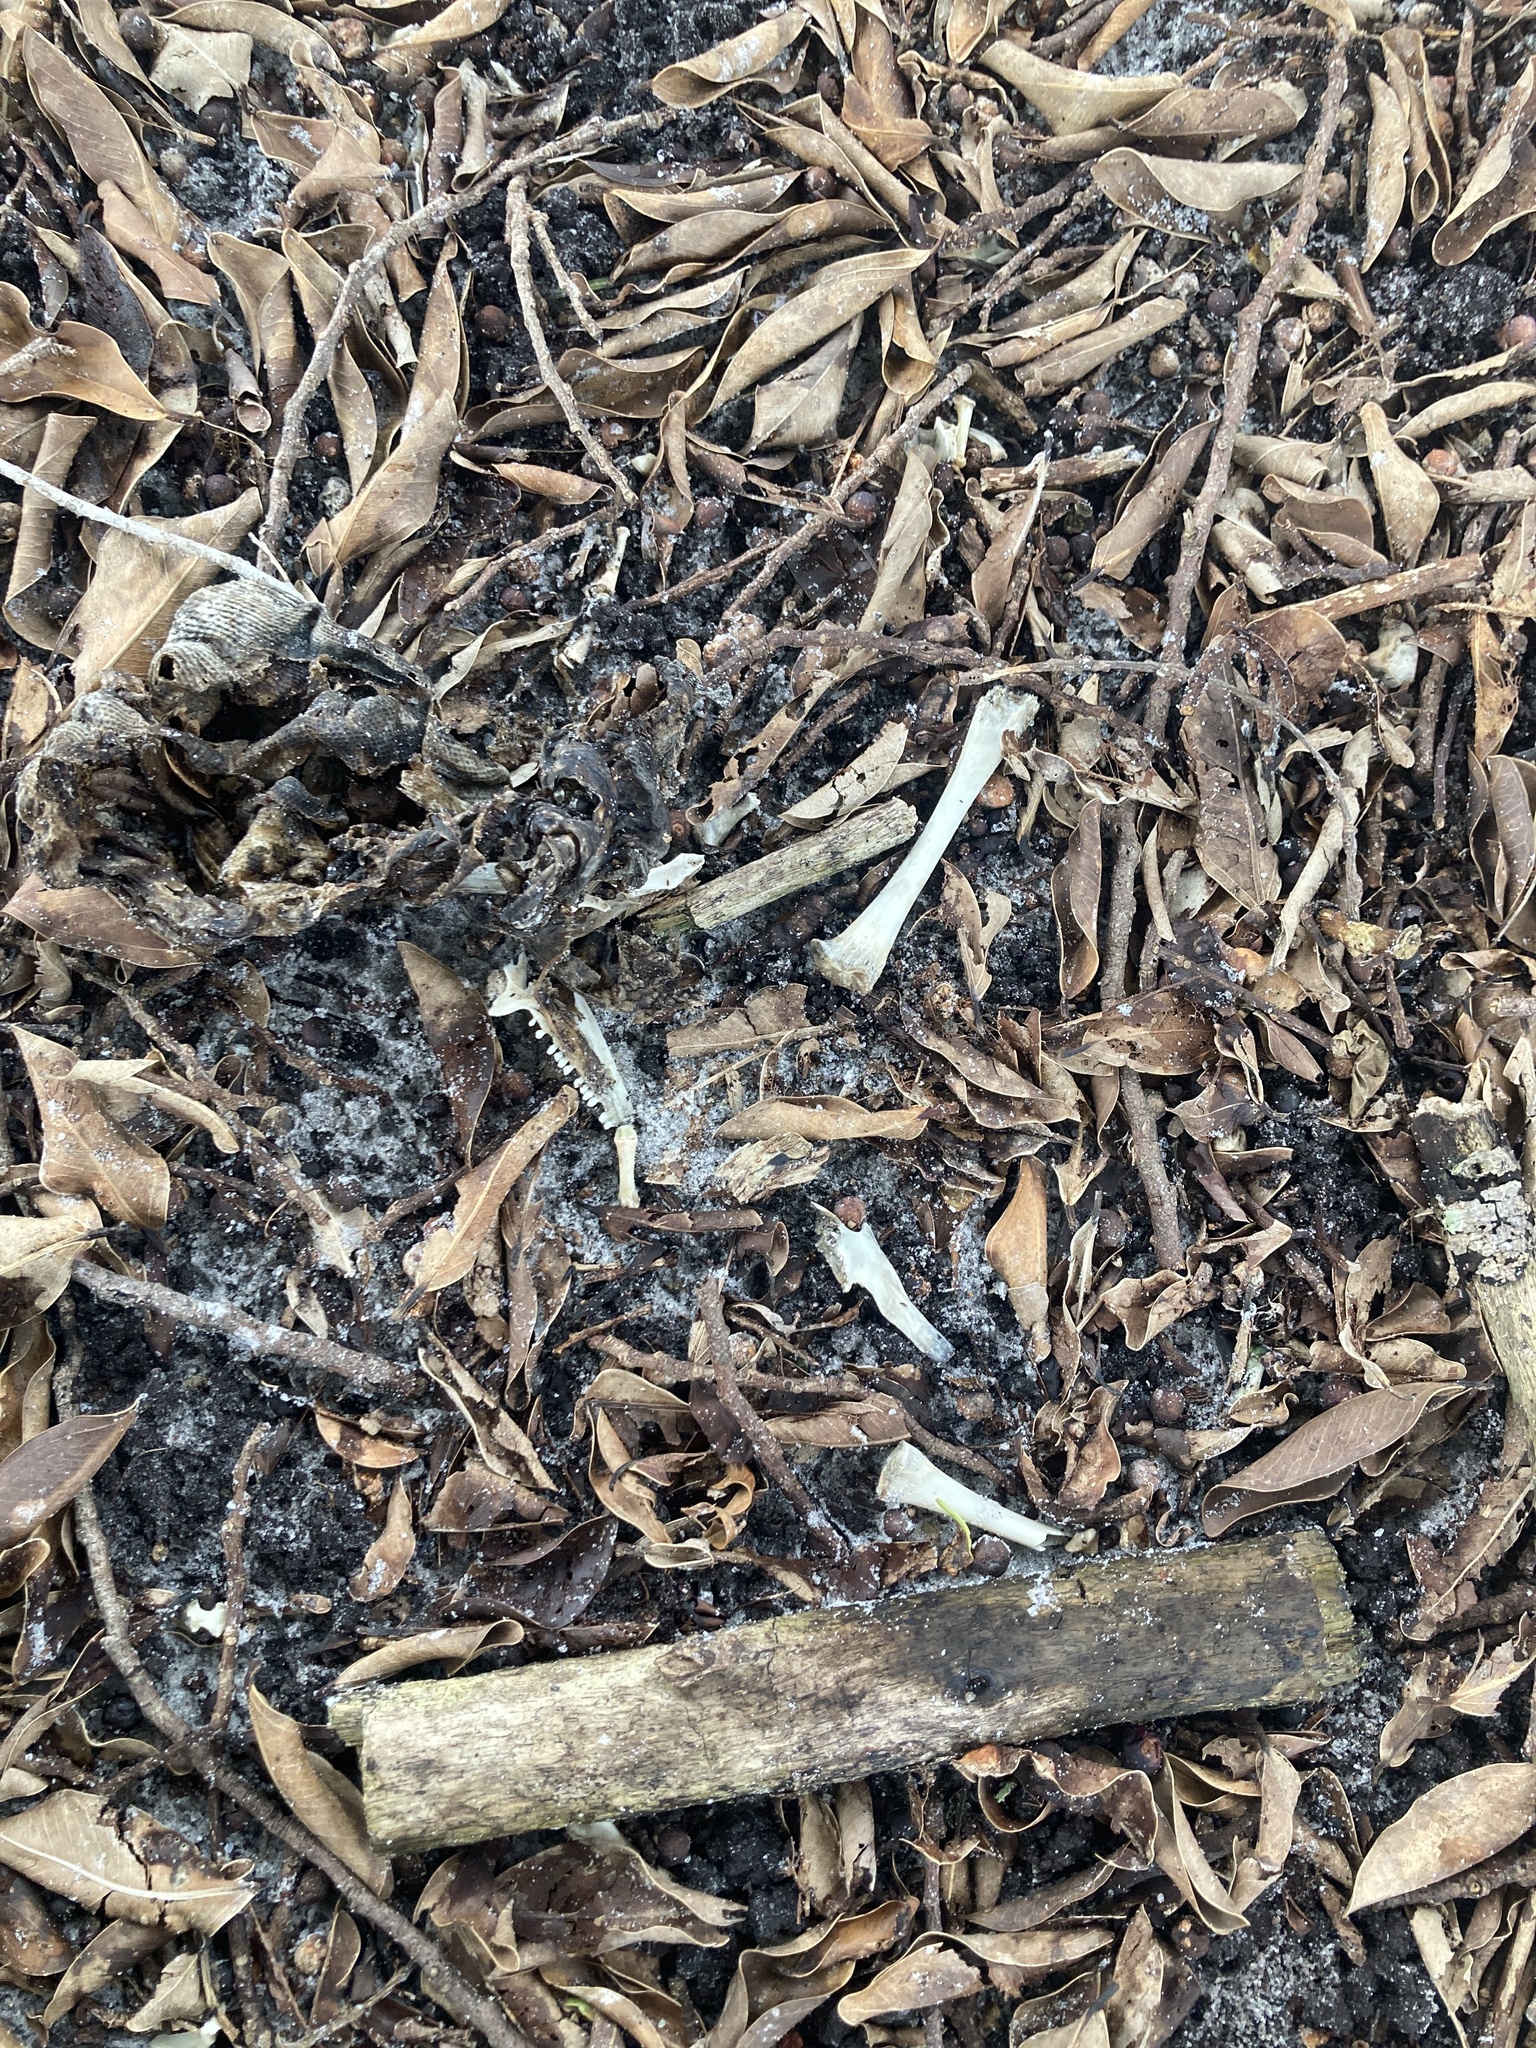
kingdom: Animalia
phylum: Chordata
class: Squamata
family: Iguanidae
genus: Iguana
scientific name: Iguana iguana
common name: Green iguana
